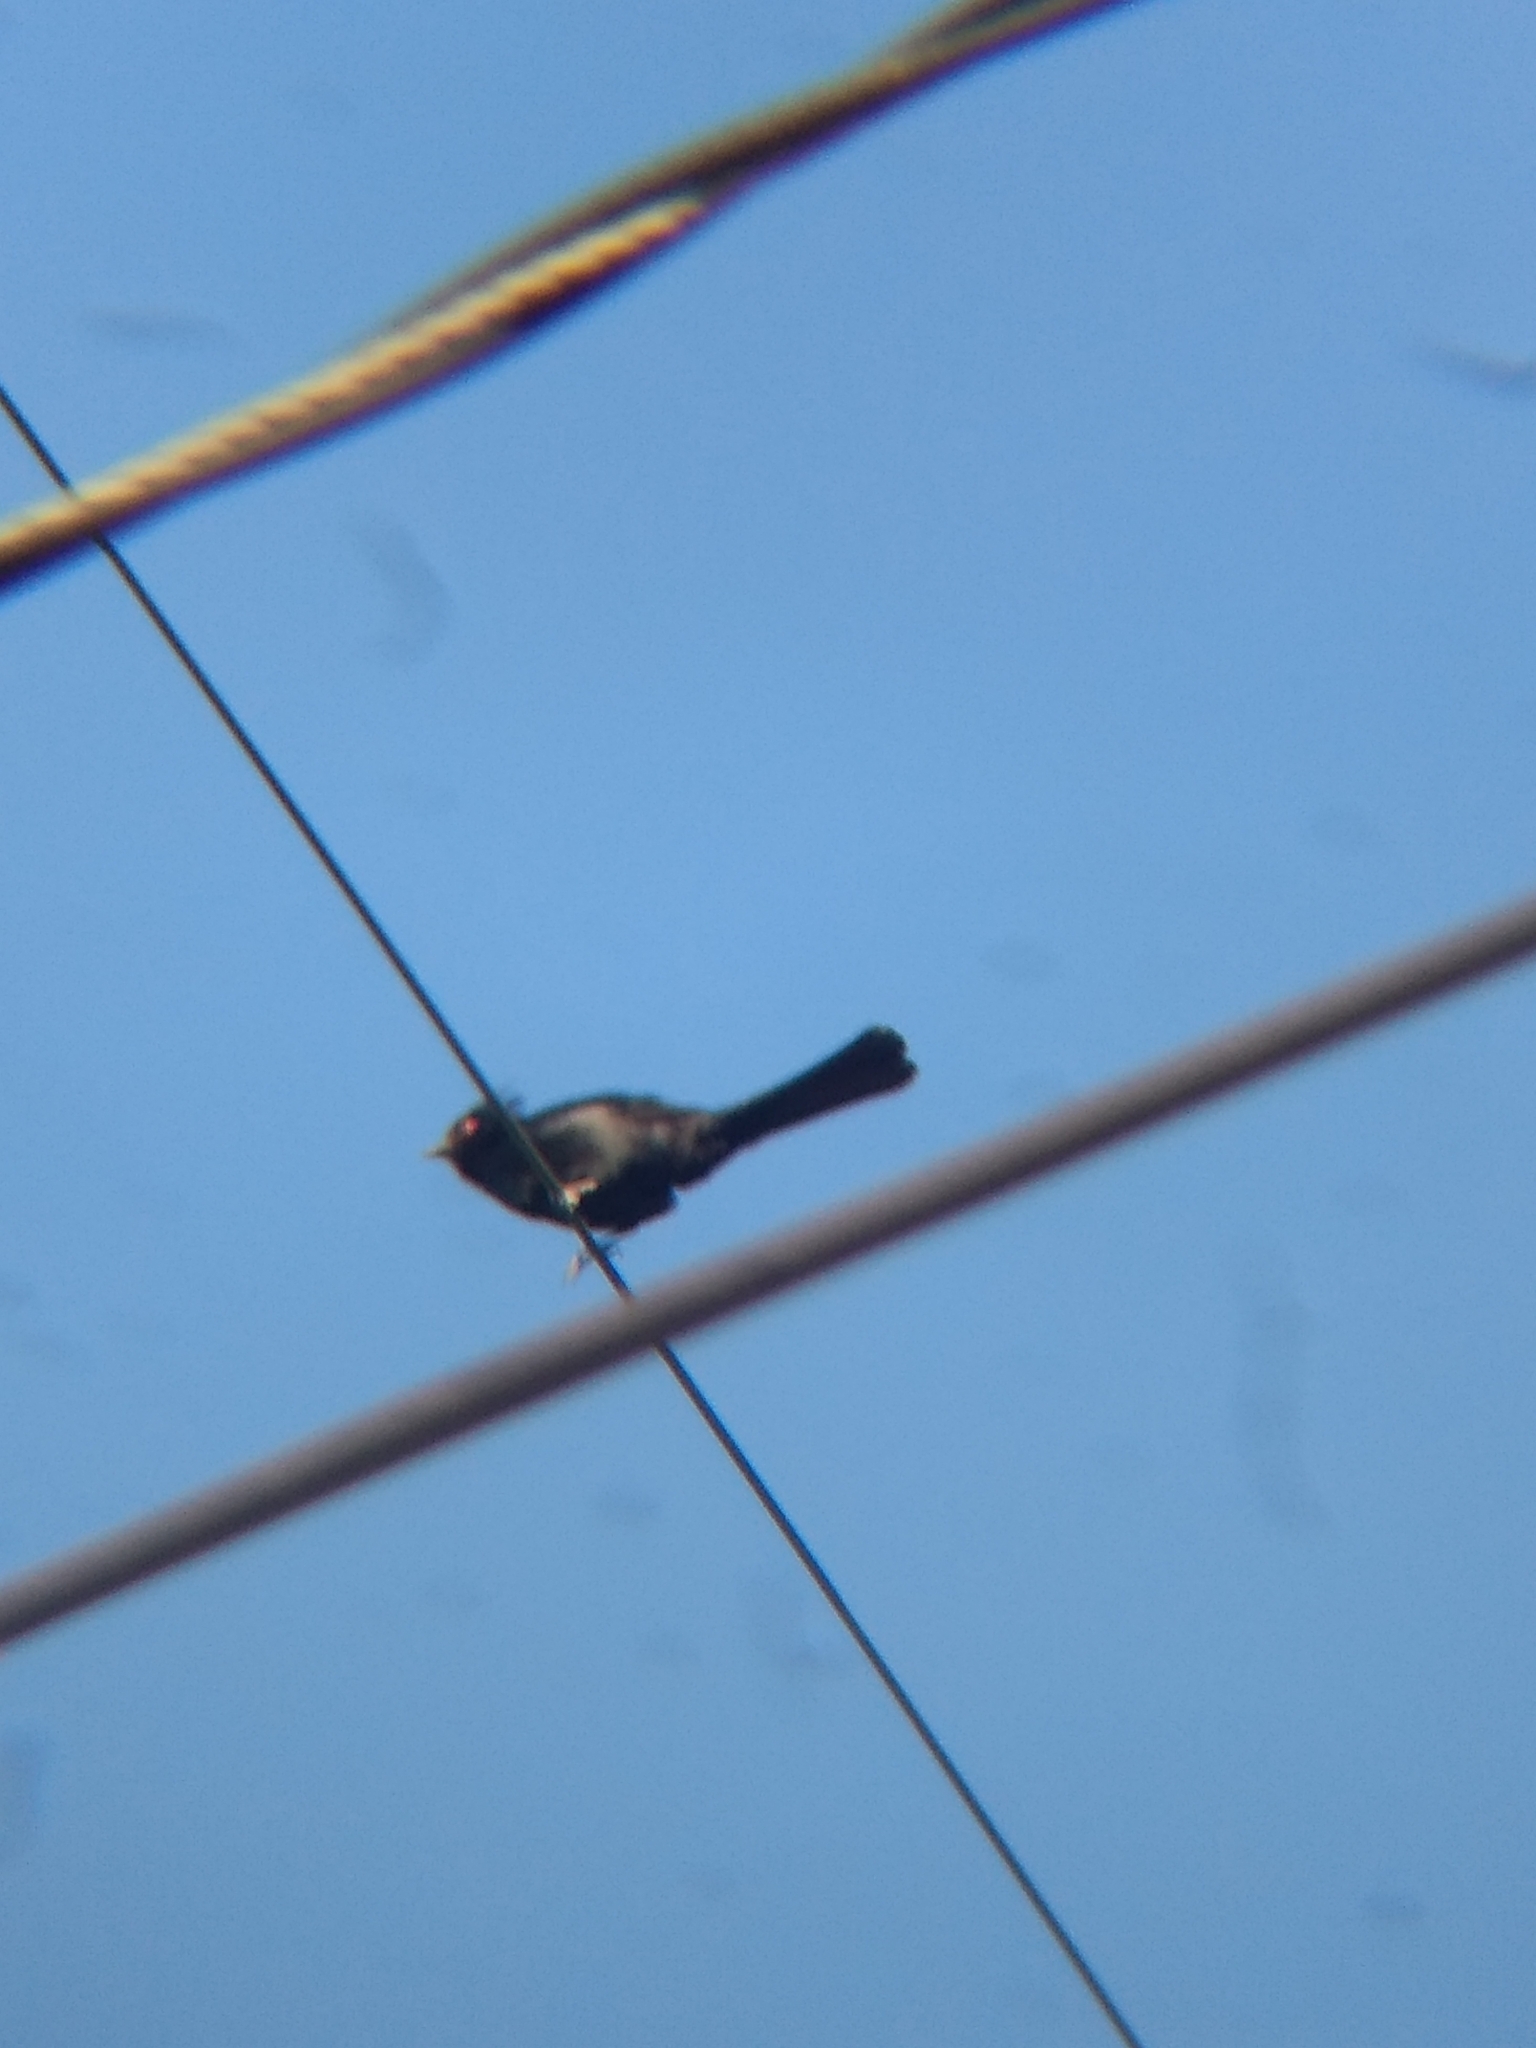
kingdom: Animalia
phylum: Chordata
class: Aves
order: Passeriformes
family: Ptilogonatidae
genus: Phainopepla
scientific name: Phainopepla nitens
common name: Phainopepla
